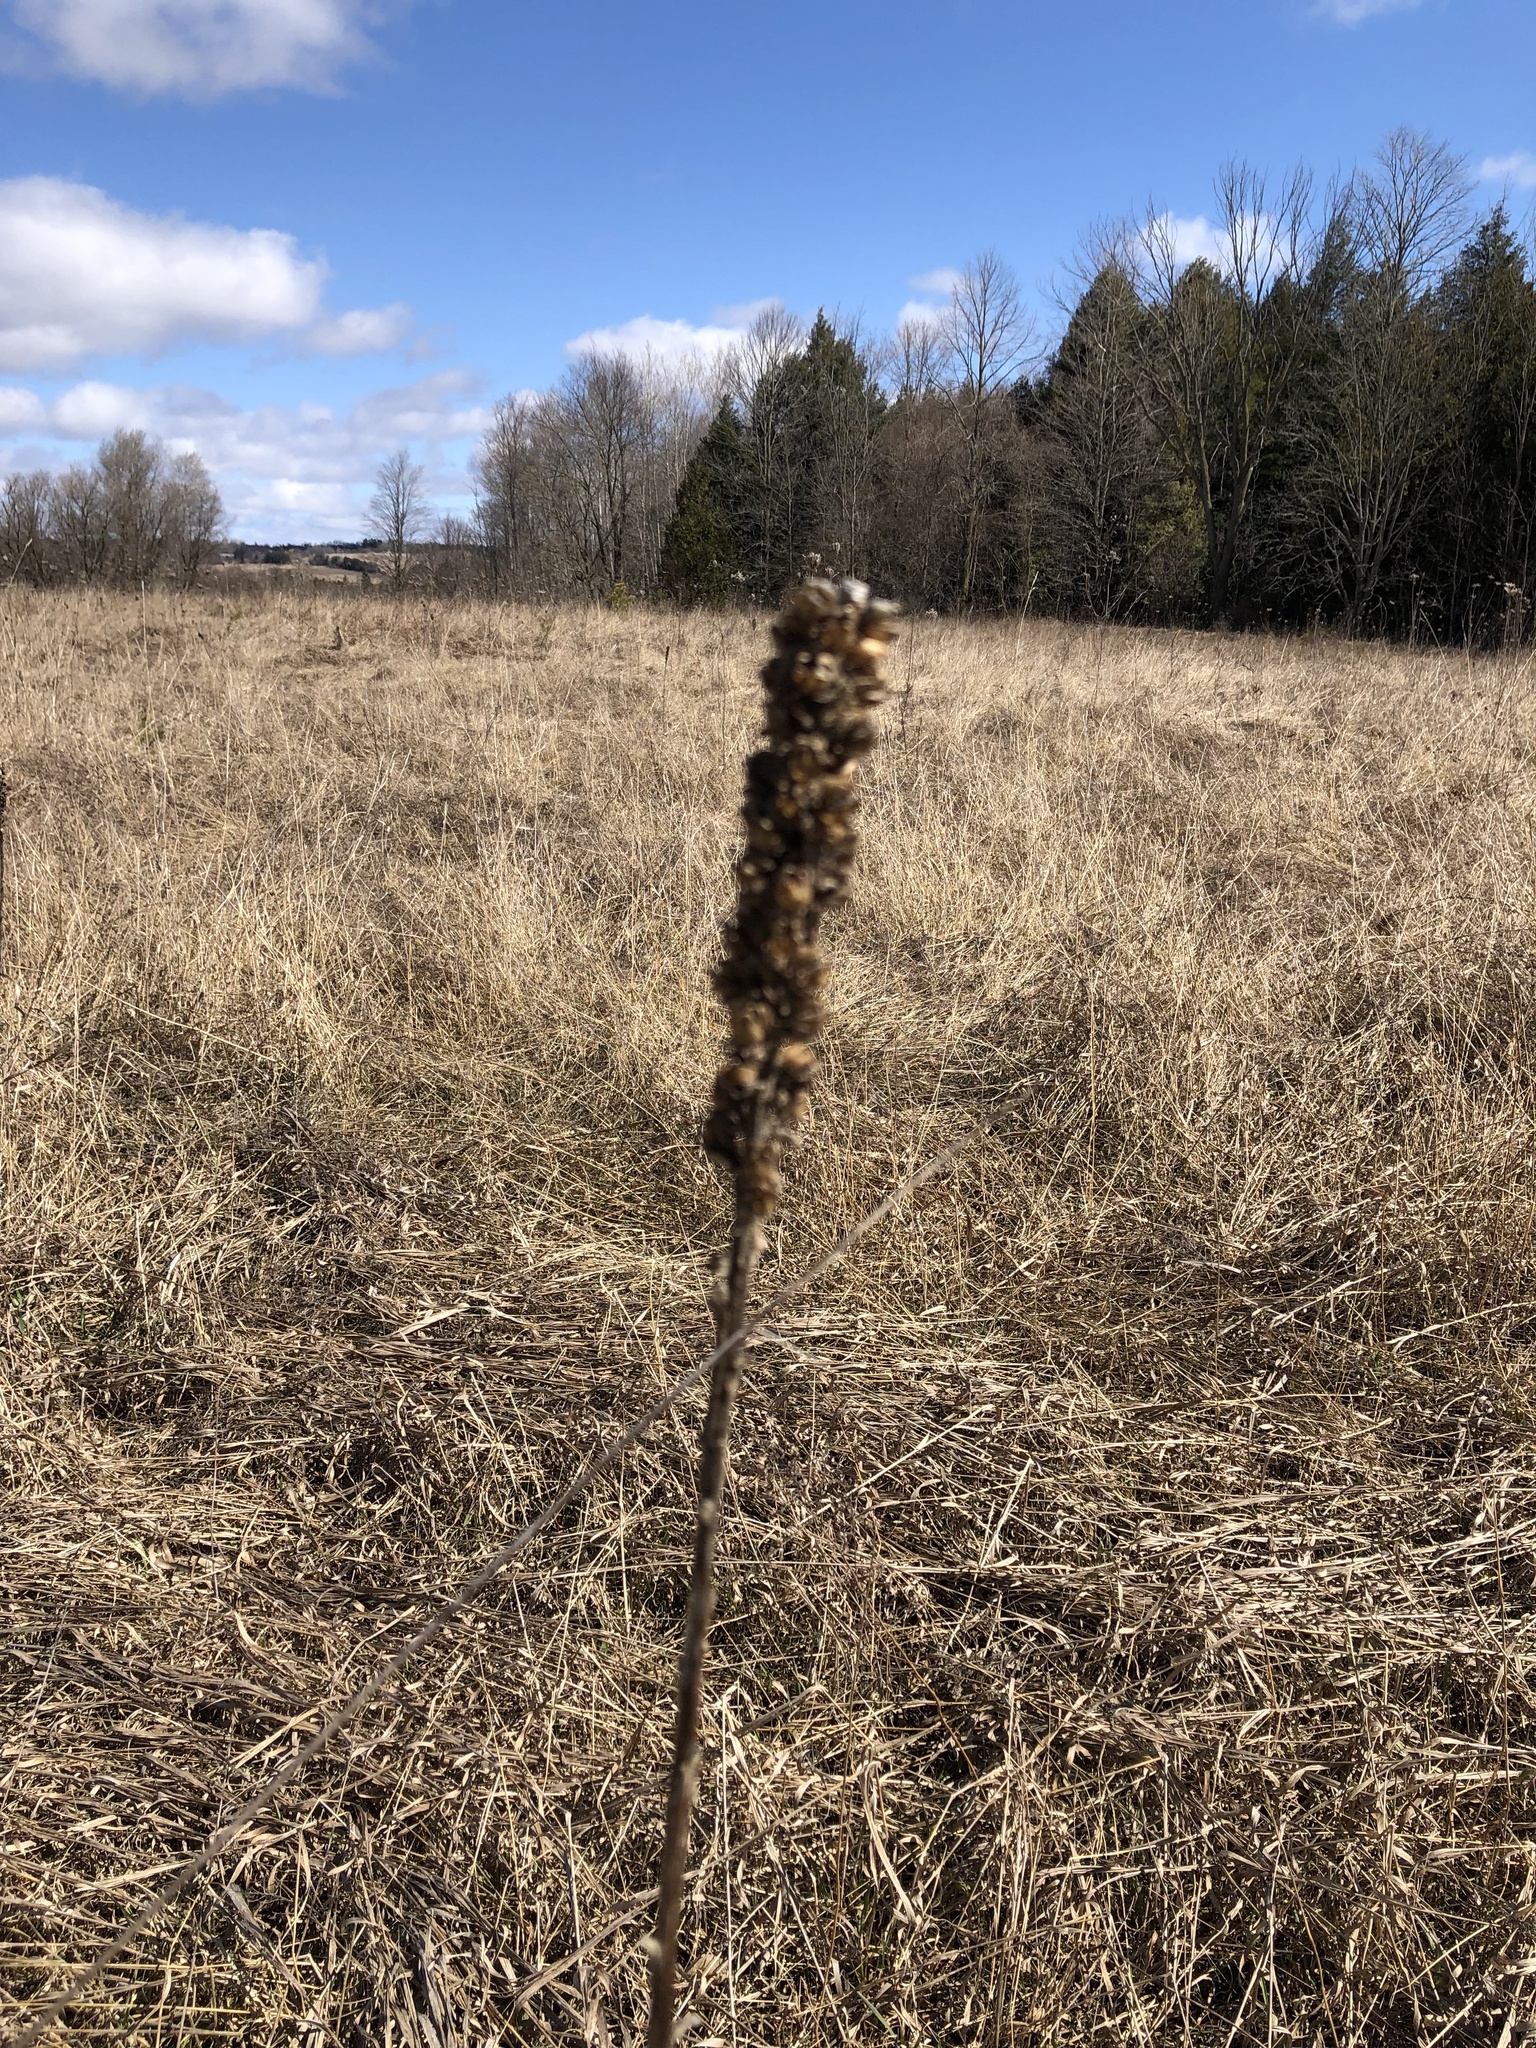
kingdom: Plantae
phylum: Tracheophyta
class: Magnoliopsida
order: Lamiales
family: Scrophulariaceae
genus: Verbascum
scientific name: Verbascum thapsus
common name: Common mullein
